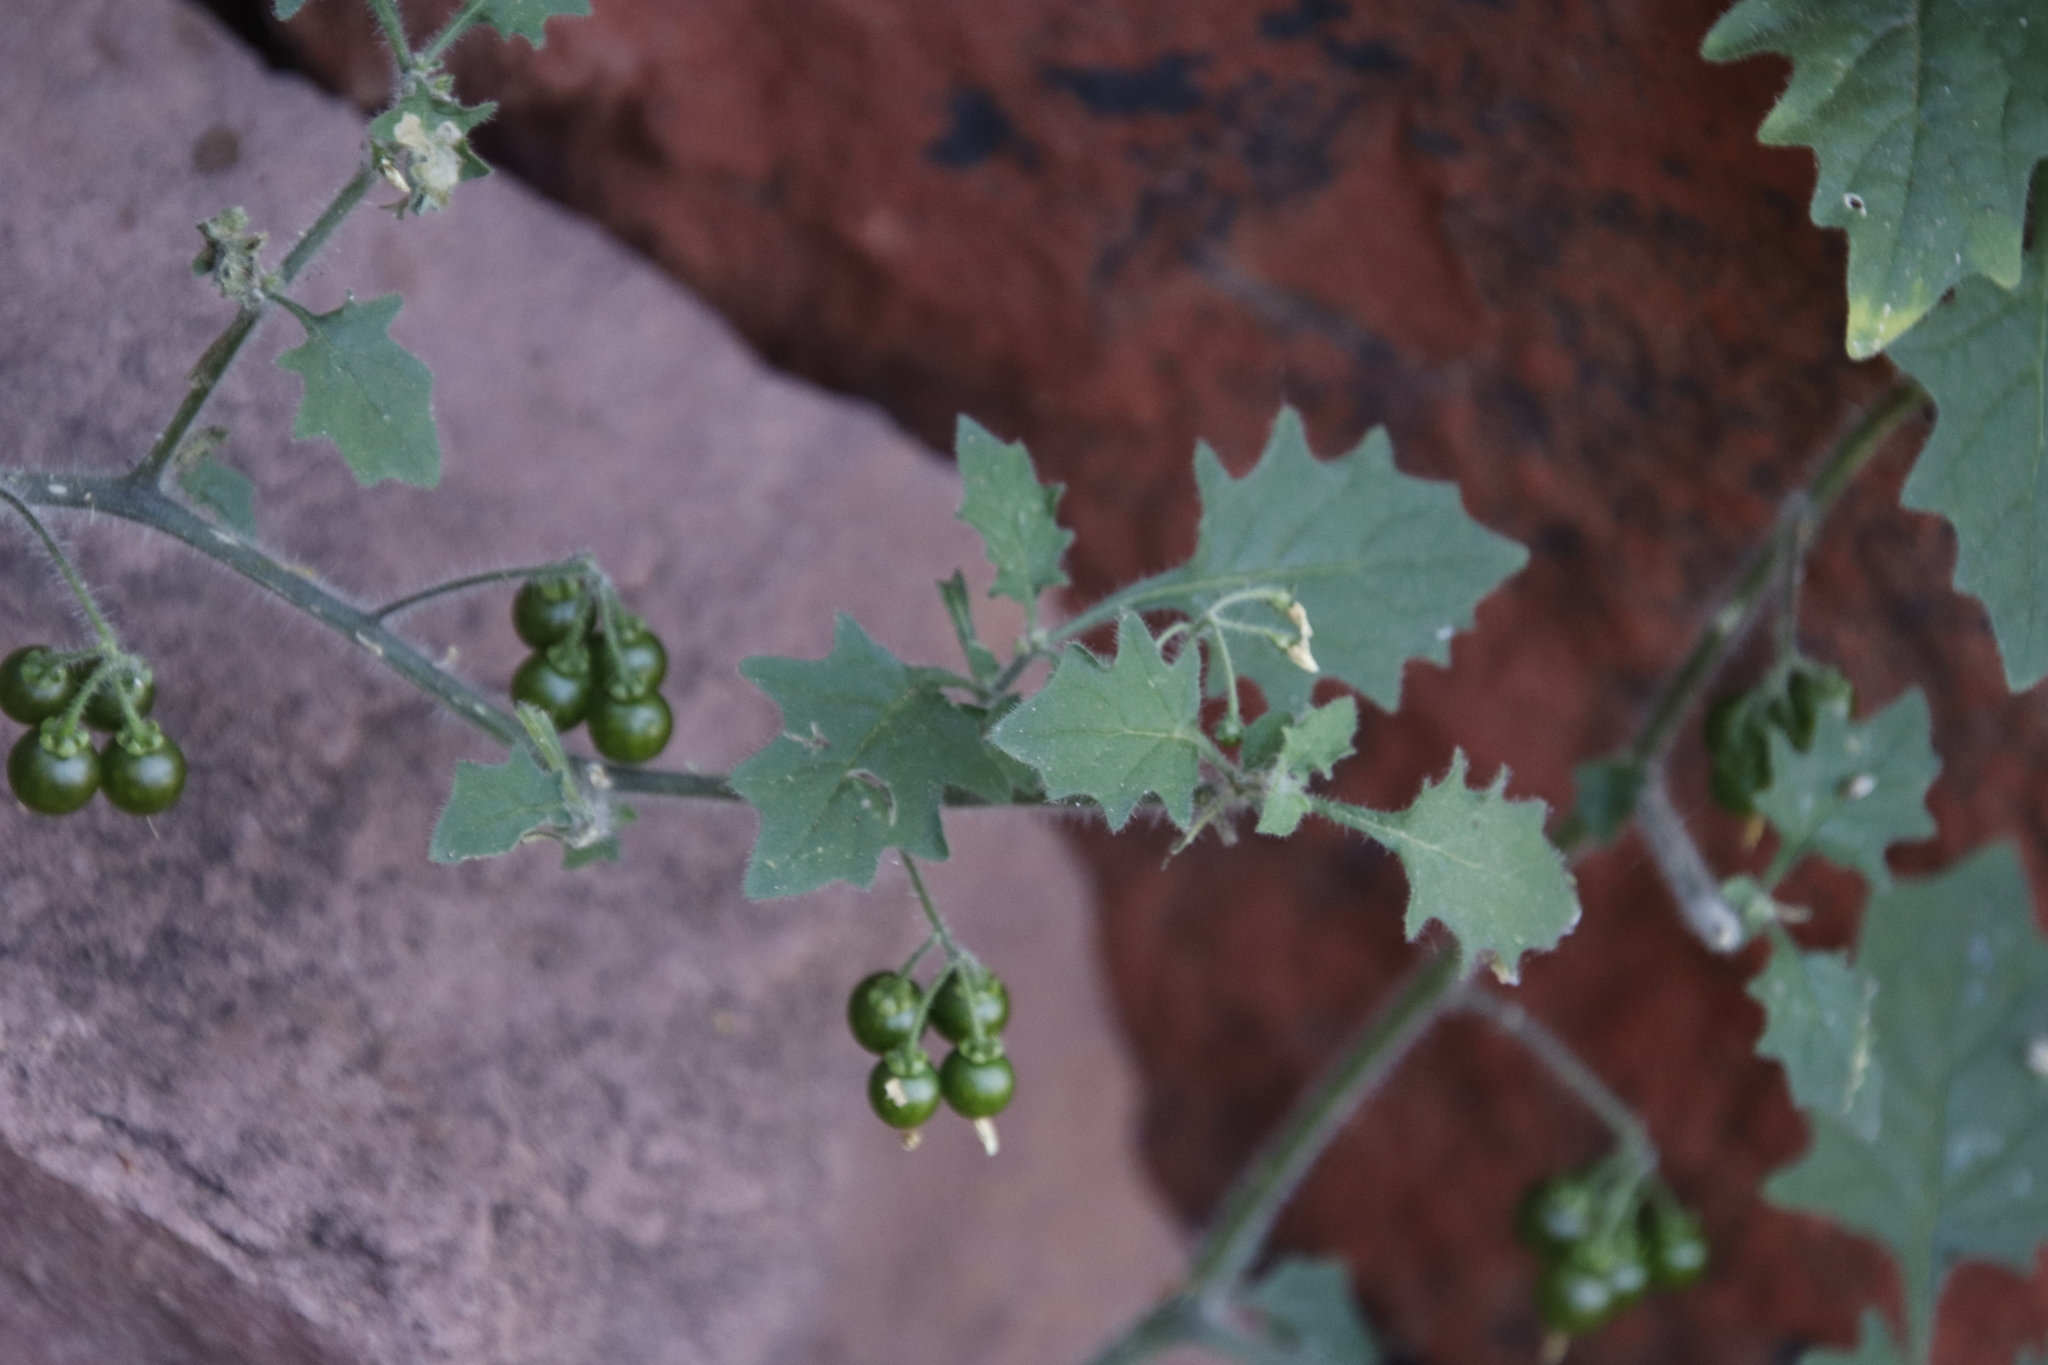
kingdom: Plantae
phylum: Tracheophyta
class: Magnoliopsida
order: Solanales
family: Solanaceae
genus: Solanum
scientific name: Solanum retroflexum
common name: Wonderberry
